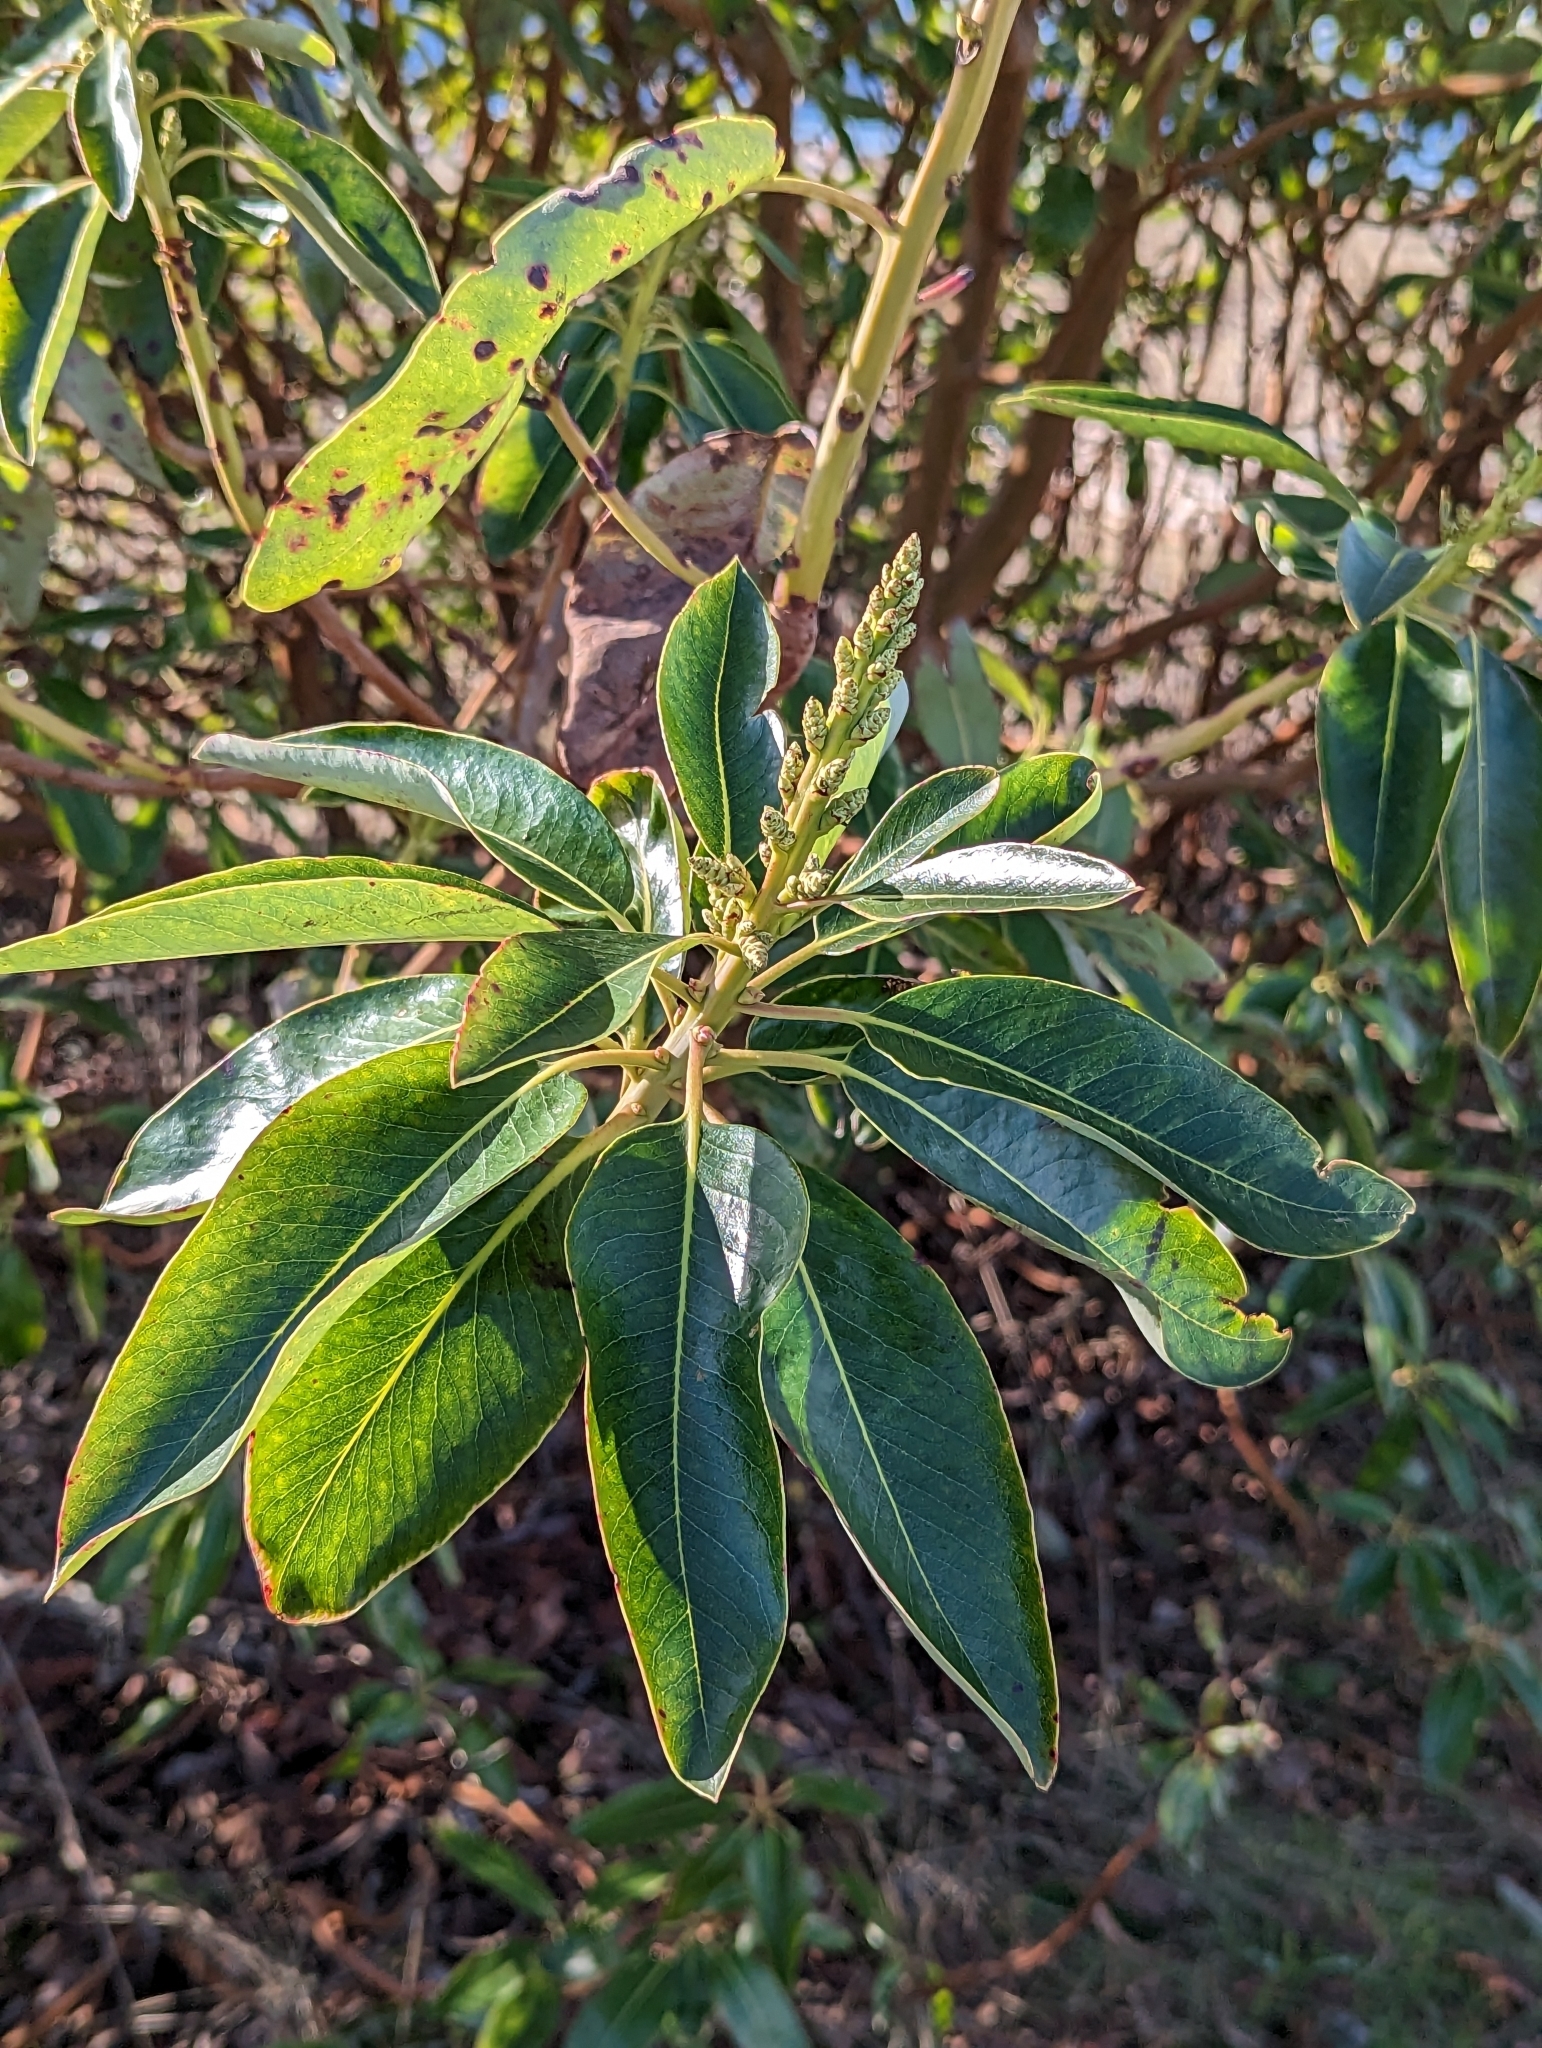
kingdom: Plantae
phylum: Tracheophyta
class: Magnoliopsida
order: Ericales
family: Ericaceae
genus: Arbutus
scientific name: Arbutus menziesii
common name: Pacific madrone
